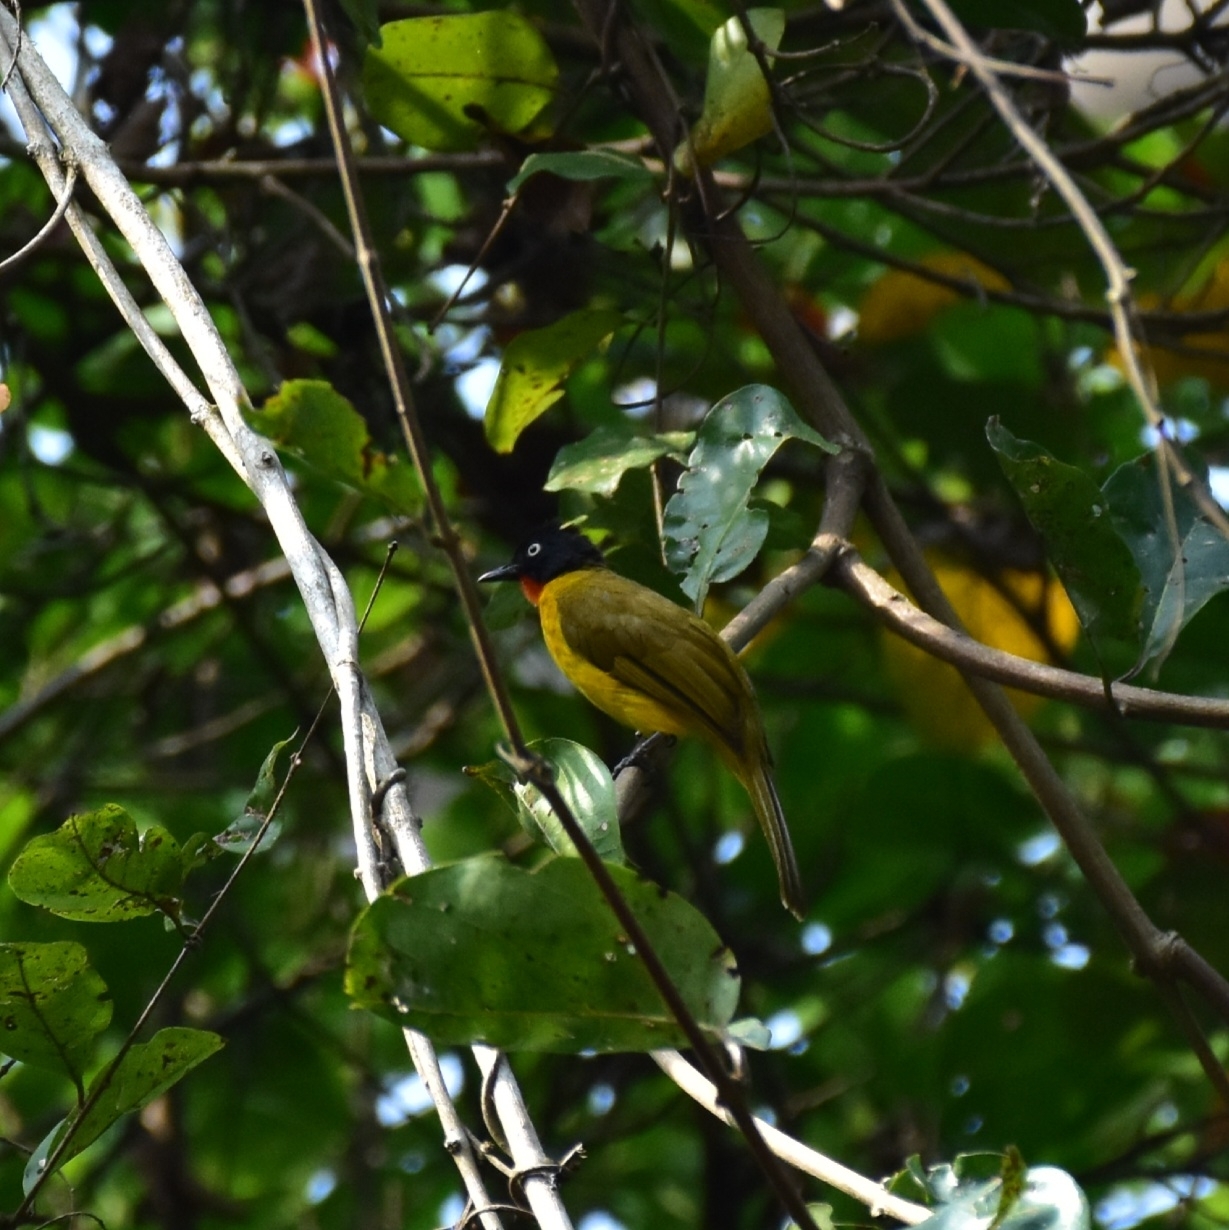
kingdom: Animalia
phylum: Chordata
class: Aves
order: Passeriformes
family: Pycnonotidae
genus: Pycnonotus
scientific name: Pycnonotus gularis
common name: Flame-throated bulbul
